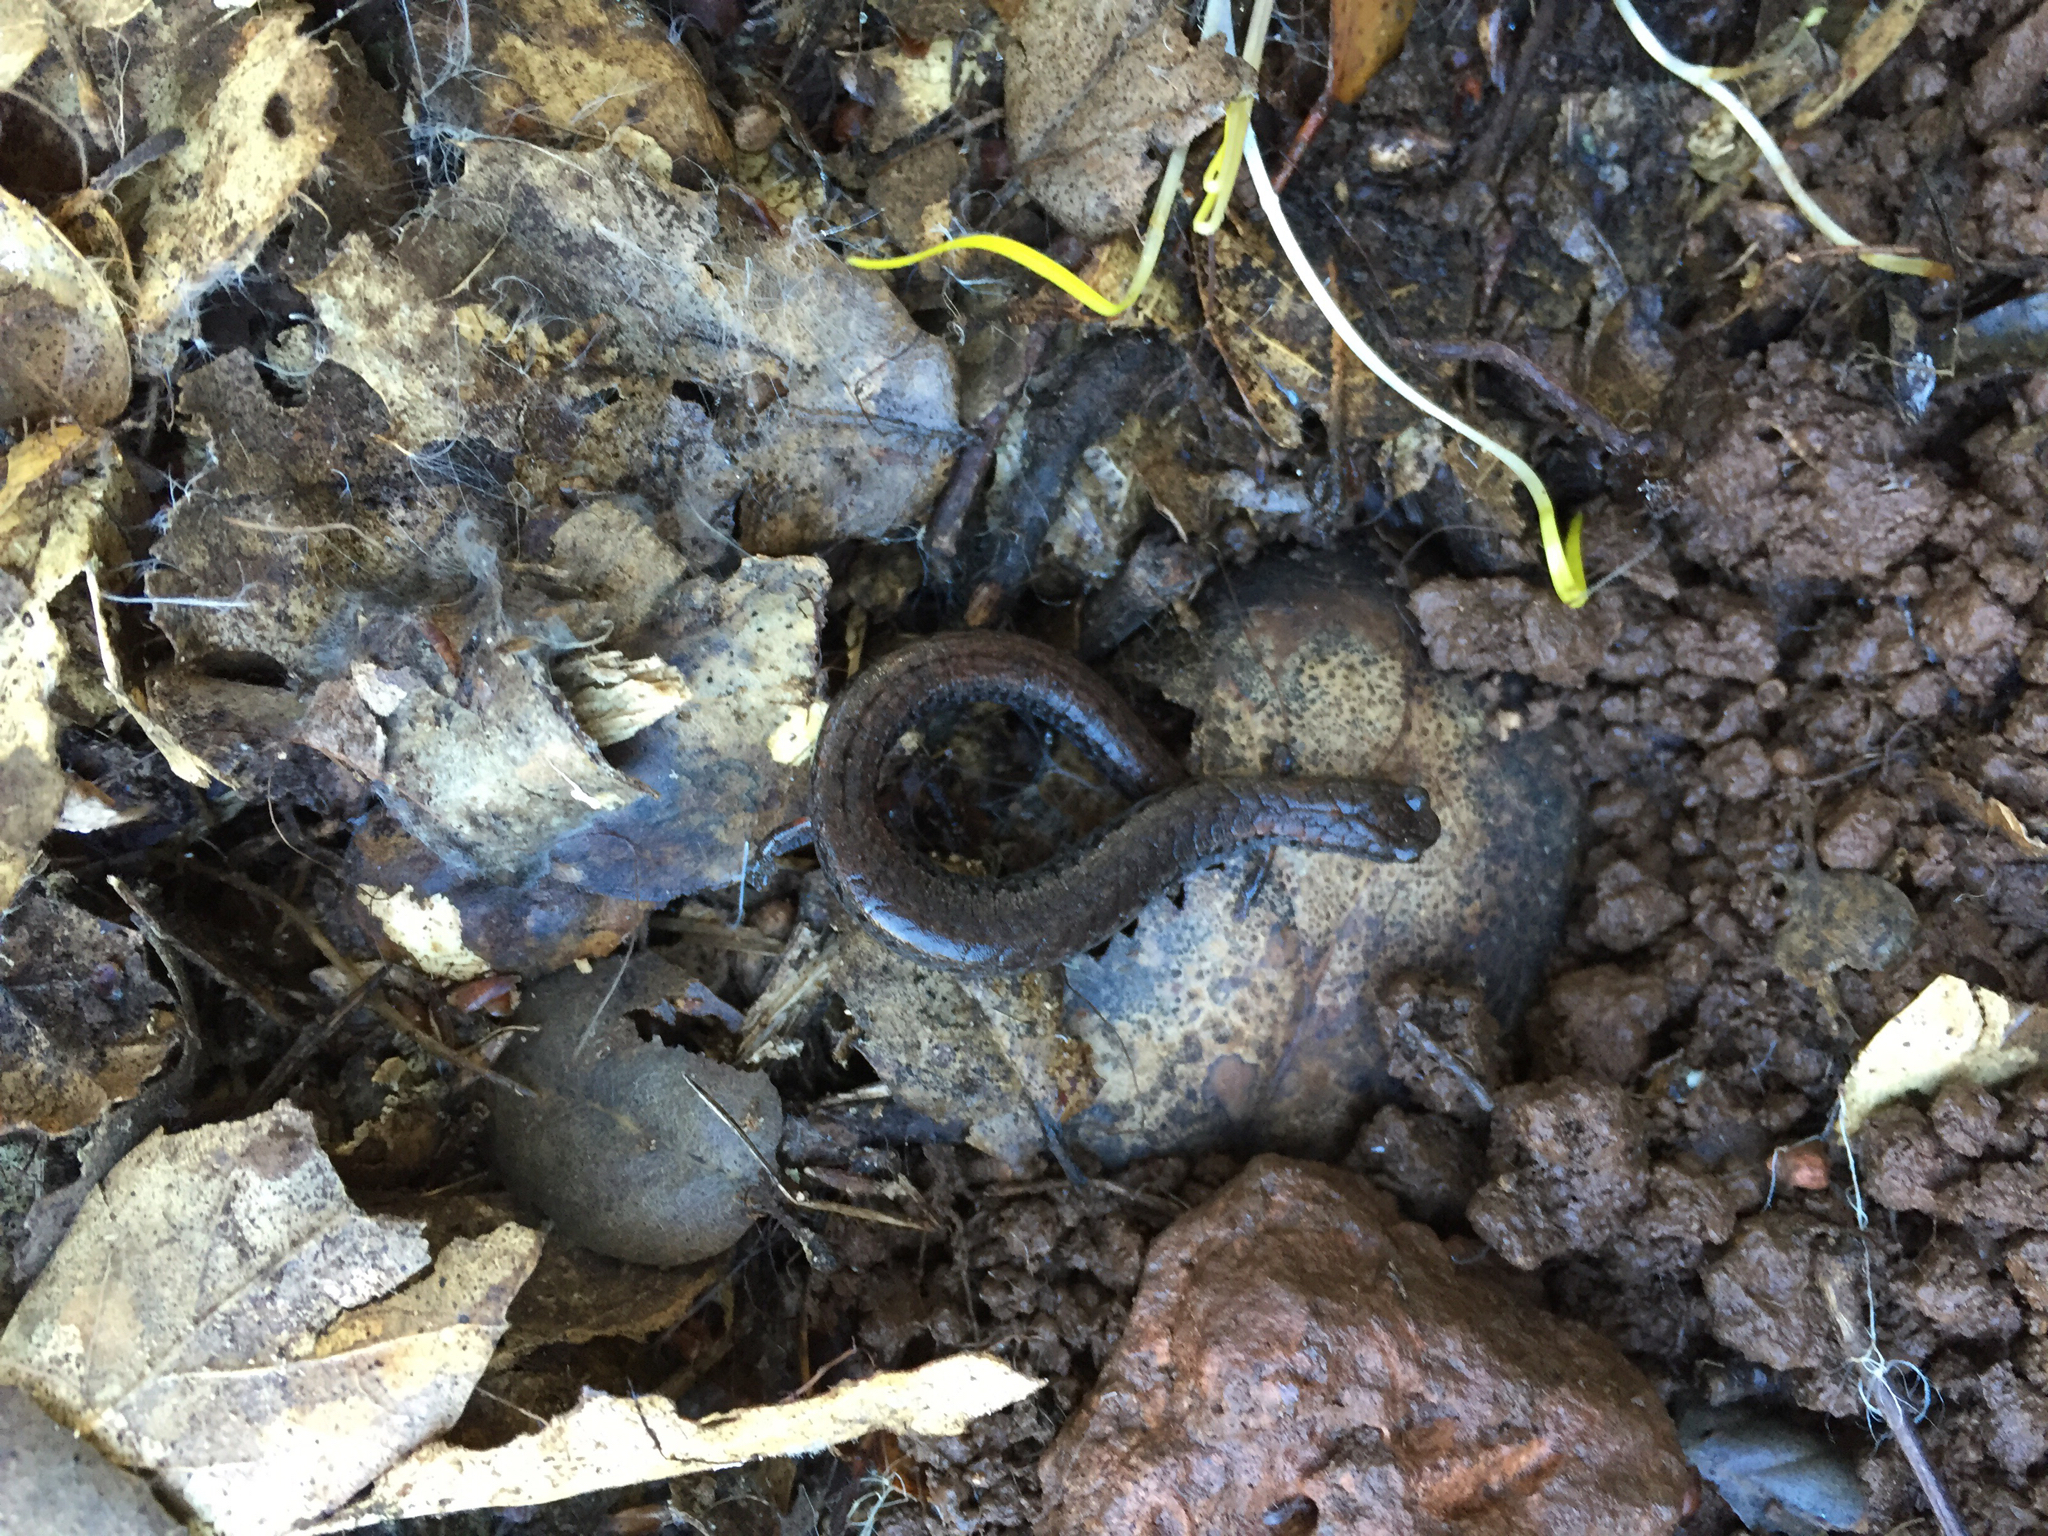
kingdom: Animalia
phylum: Chordata
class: Amphibia
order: Caudata
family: Plethodontidae
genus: Batrachoseps
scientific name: Batrachoseps attenuatus
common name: California slender salamander
